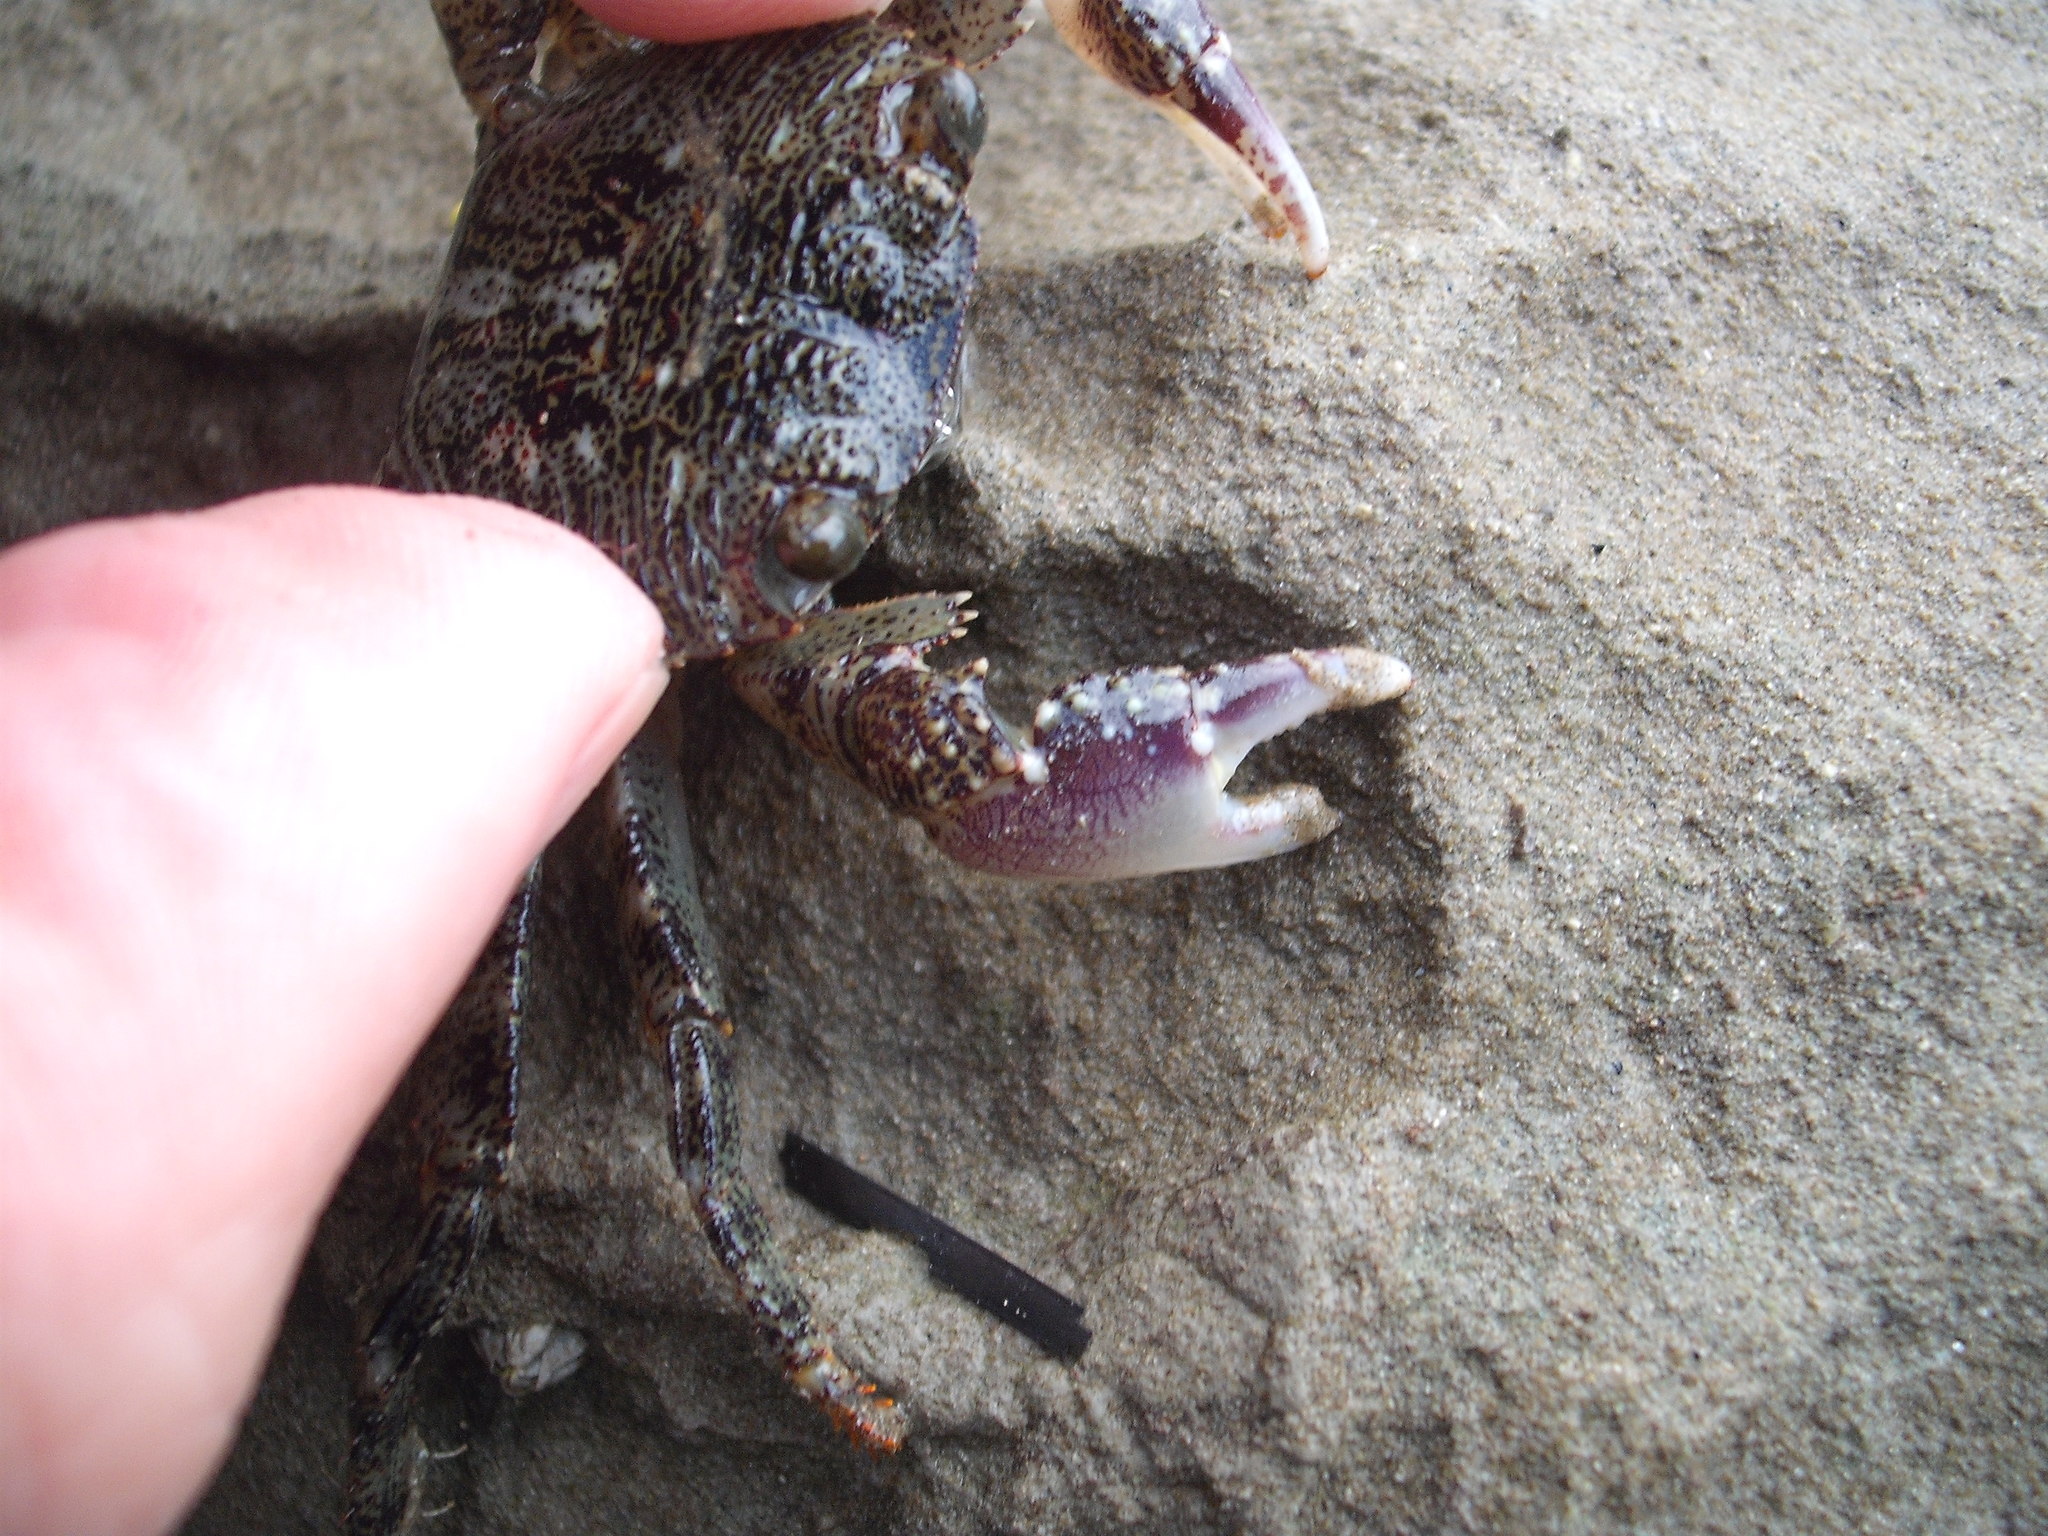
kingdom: Animalia
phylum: Arthropoda
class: Malacostraca
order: Decapoda
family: Grapsidae
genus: Leptograpsus
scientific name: Leptograpsus variegatus
